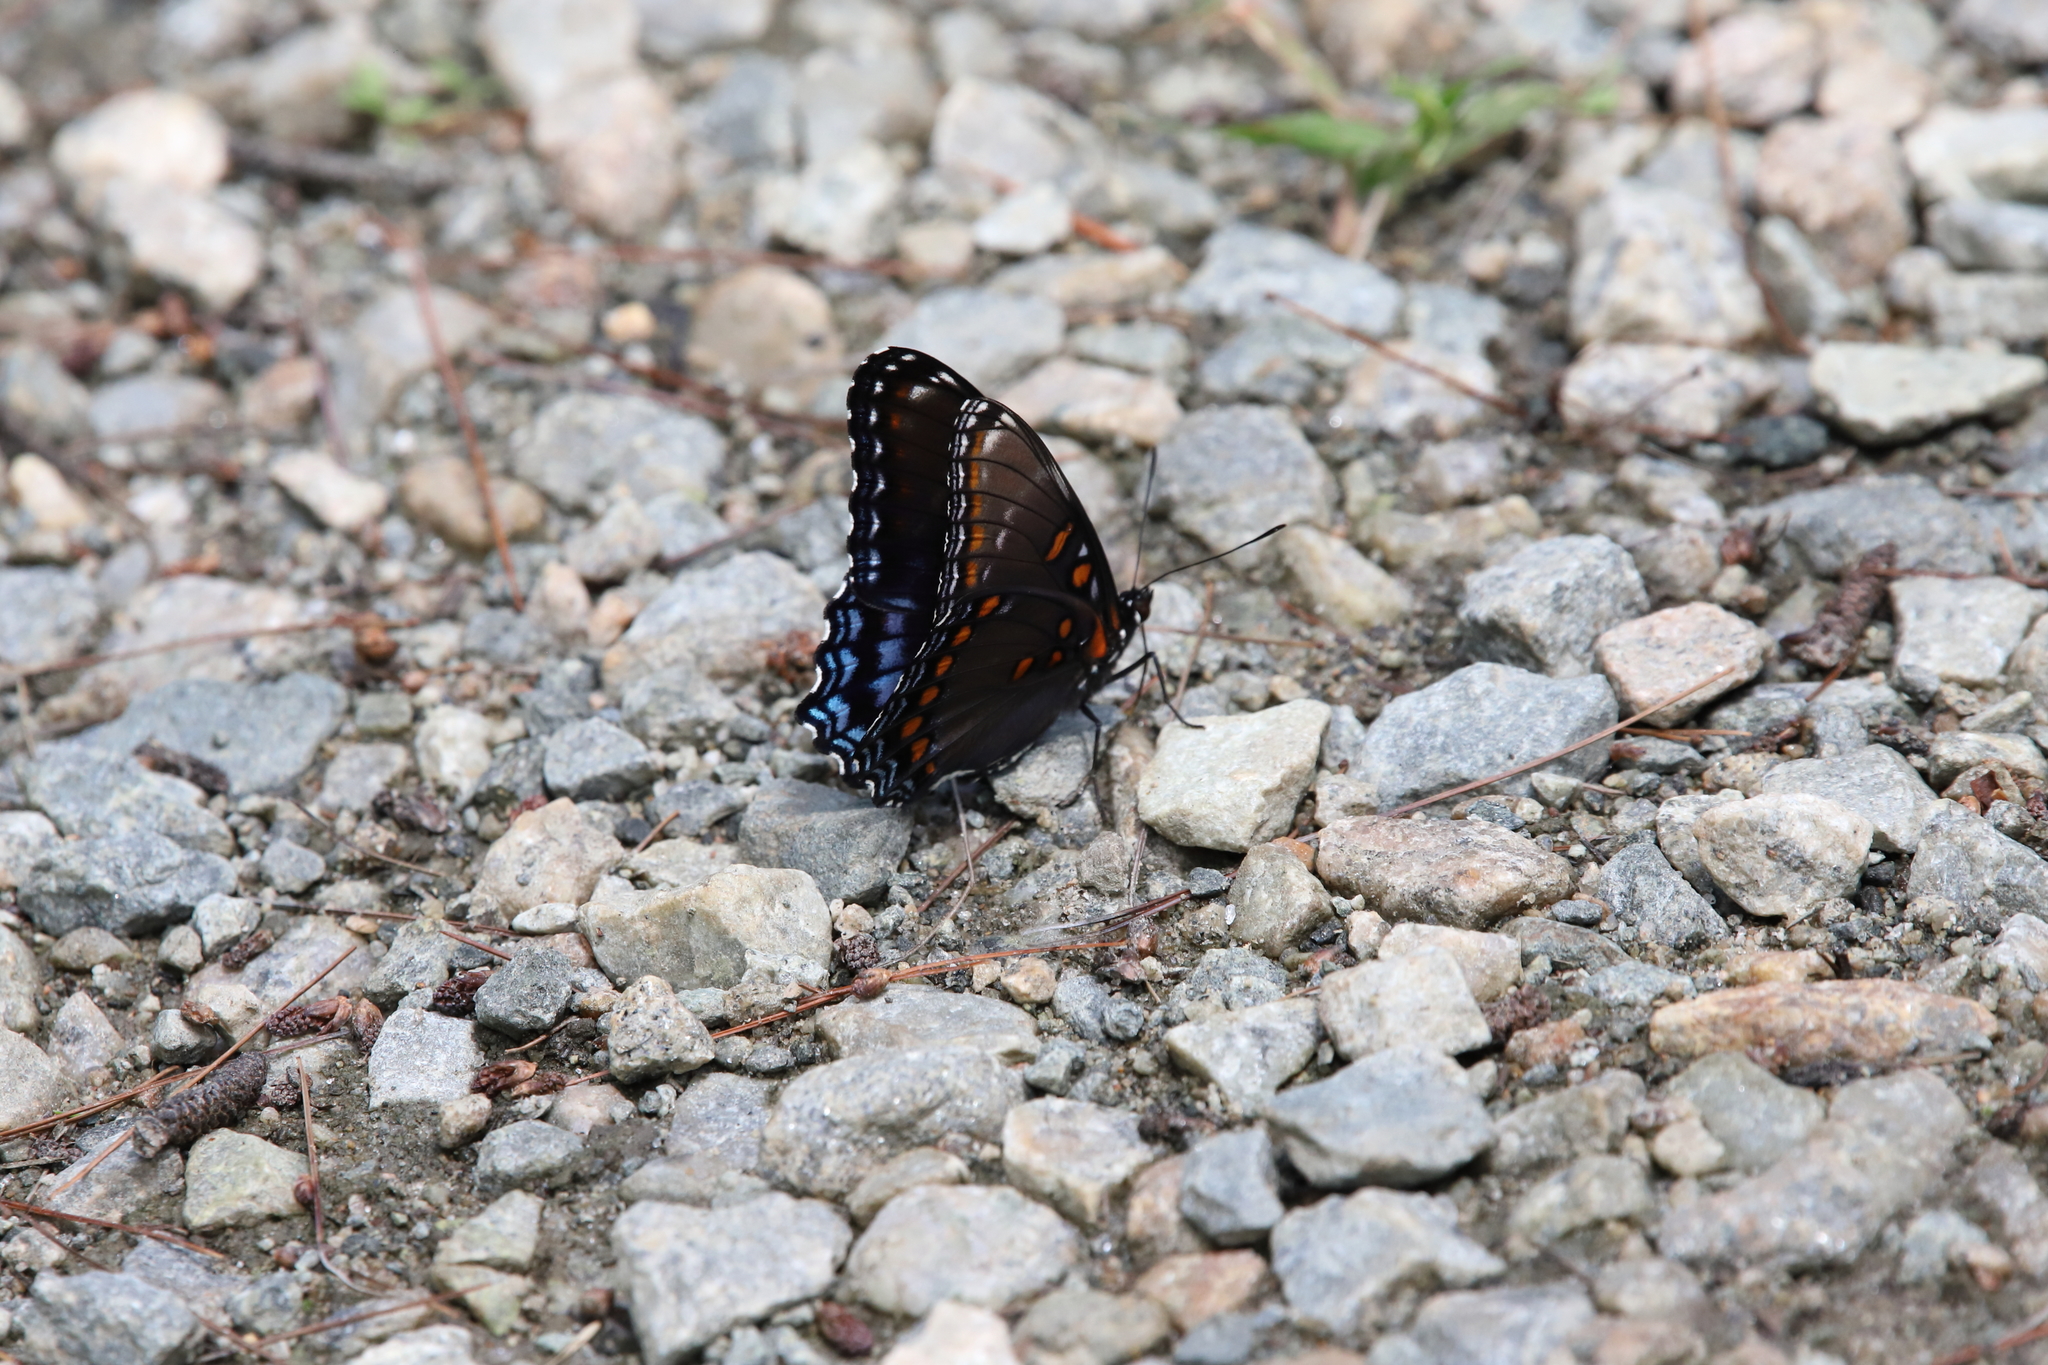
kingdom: Animalia
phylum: Arthropoda
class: Insecta
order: Lepidoptera
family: Nymphalidae
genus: Limenitis
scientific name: Limenitis astyanax
